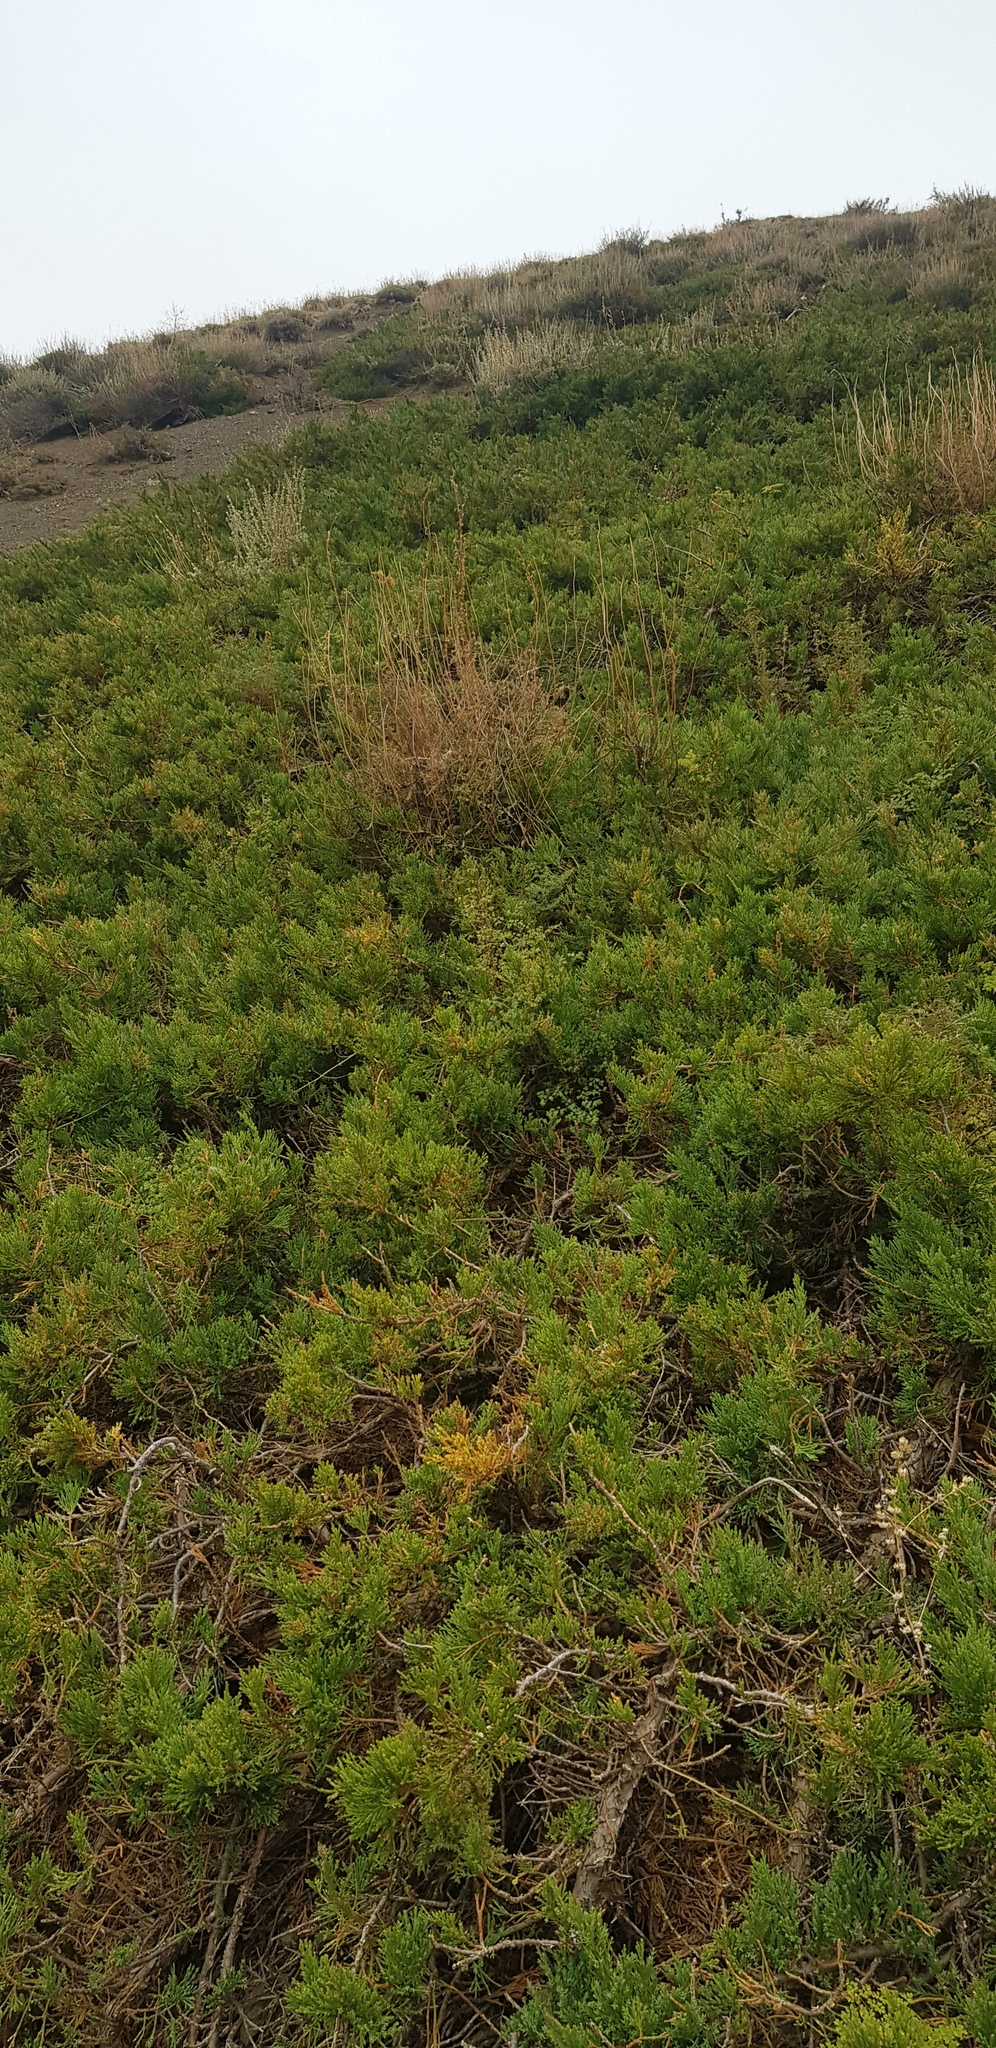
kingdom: Plantae
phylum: Tracheophyta
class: Pinopsida
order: Pinales
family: Cupressaceae
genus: Juniperus
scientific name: Juniperus sabina
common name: Savin
